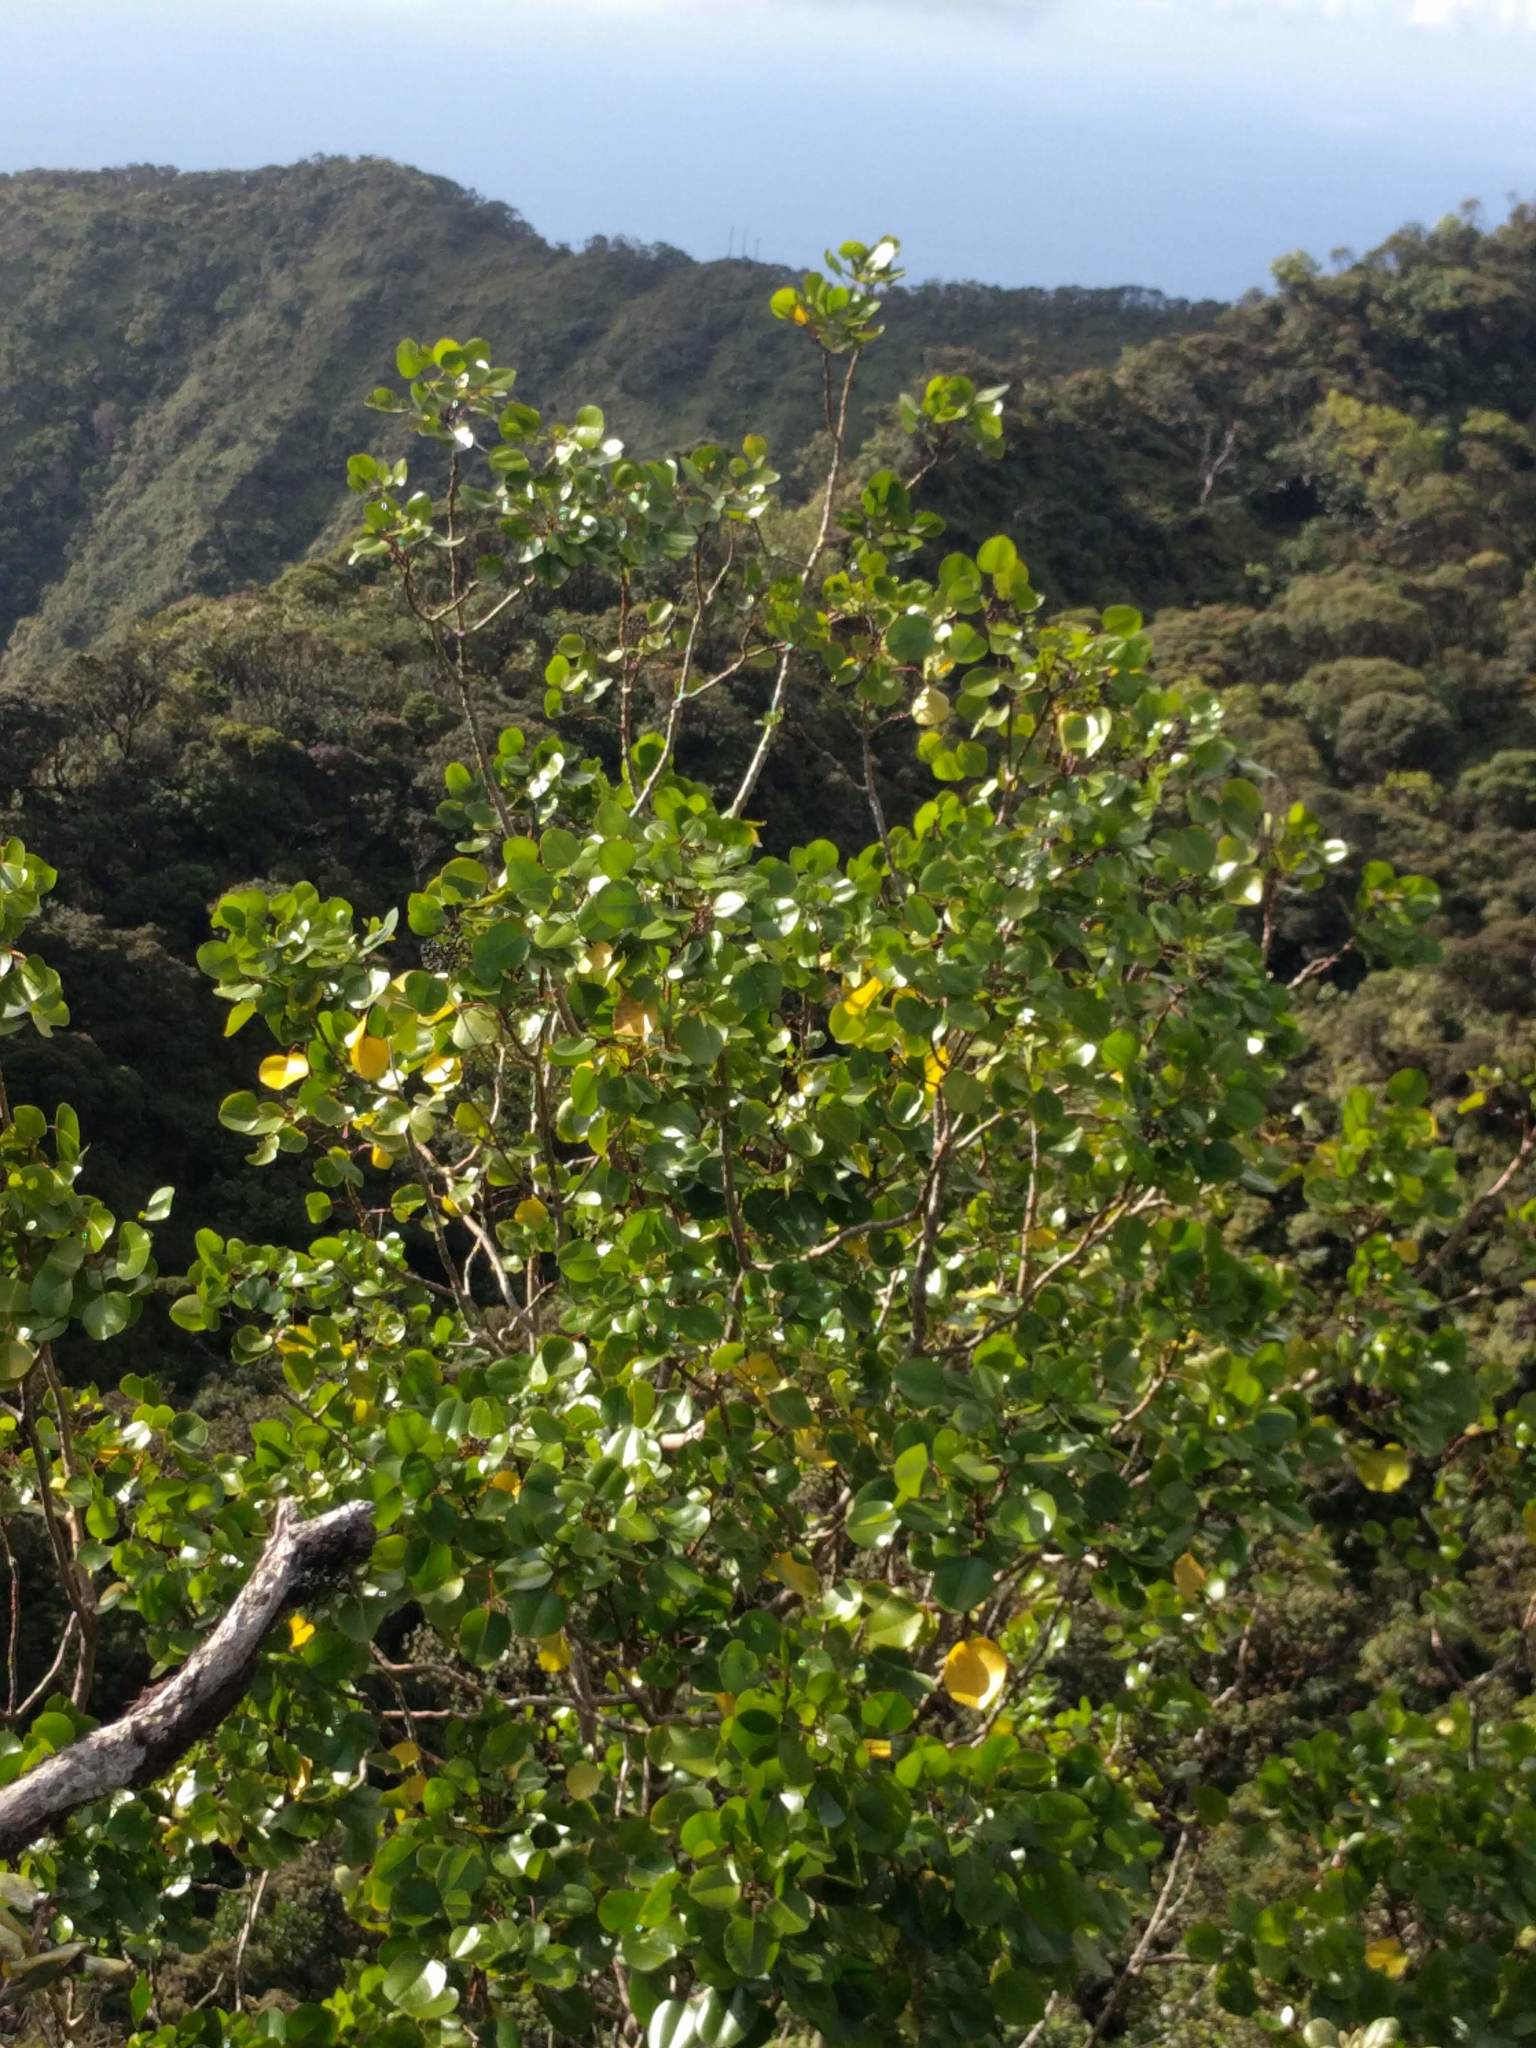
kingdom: Plantae
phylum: Tracheophyta
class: Magnoliopsida
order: Apiales
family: Araliaceae
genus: Cheirodendron
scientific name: Cheirodendron platyphyllum
